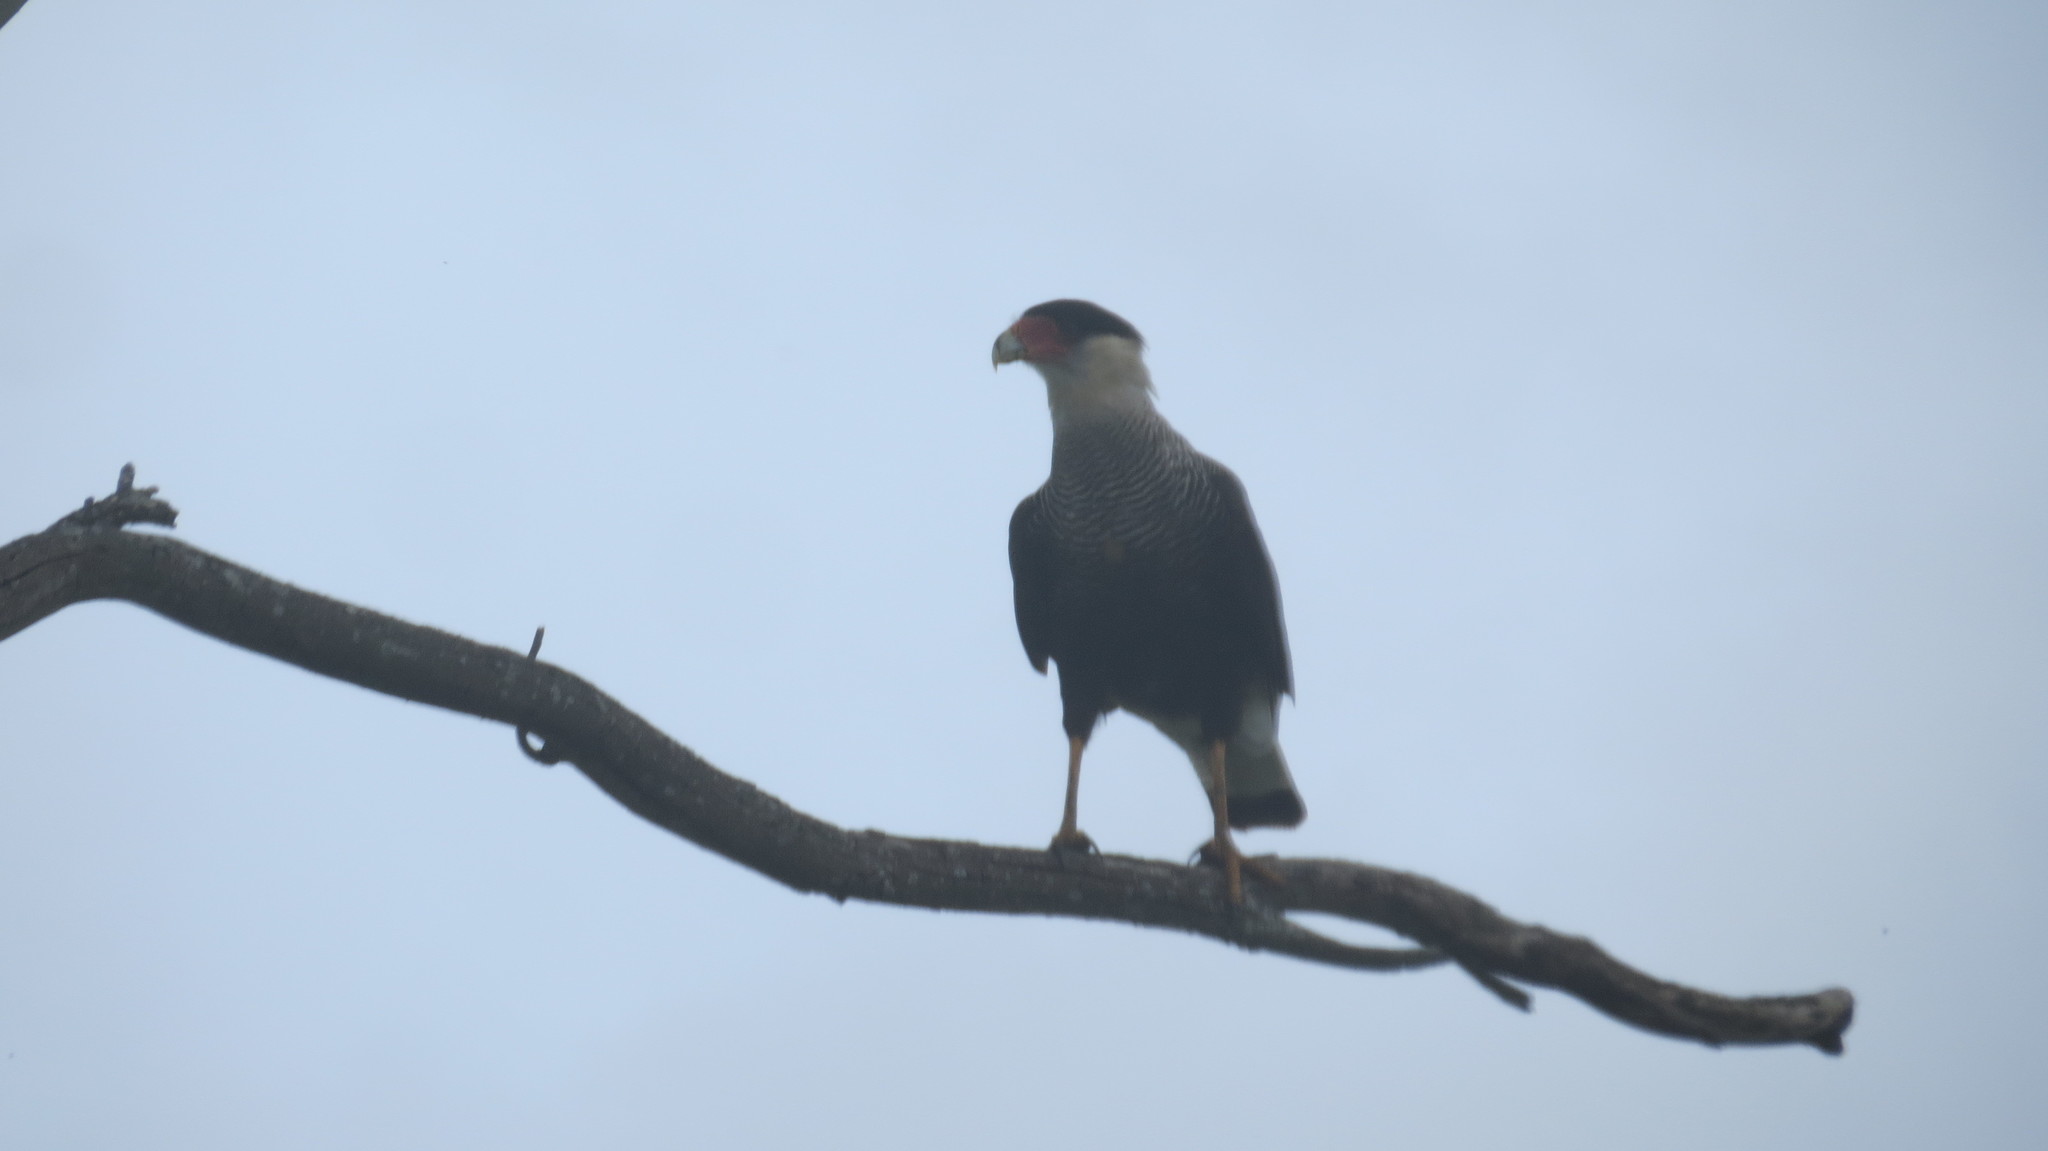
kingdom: Animalia
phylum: Chordata
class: Aves
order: Falconiformes
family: Falconidae
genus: Caracara
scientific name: Caracara plancus
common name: Southern caracara
